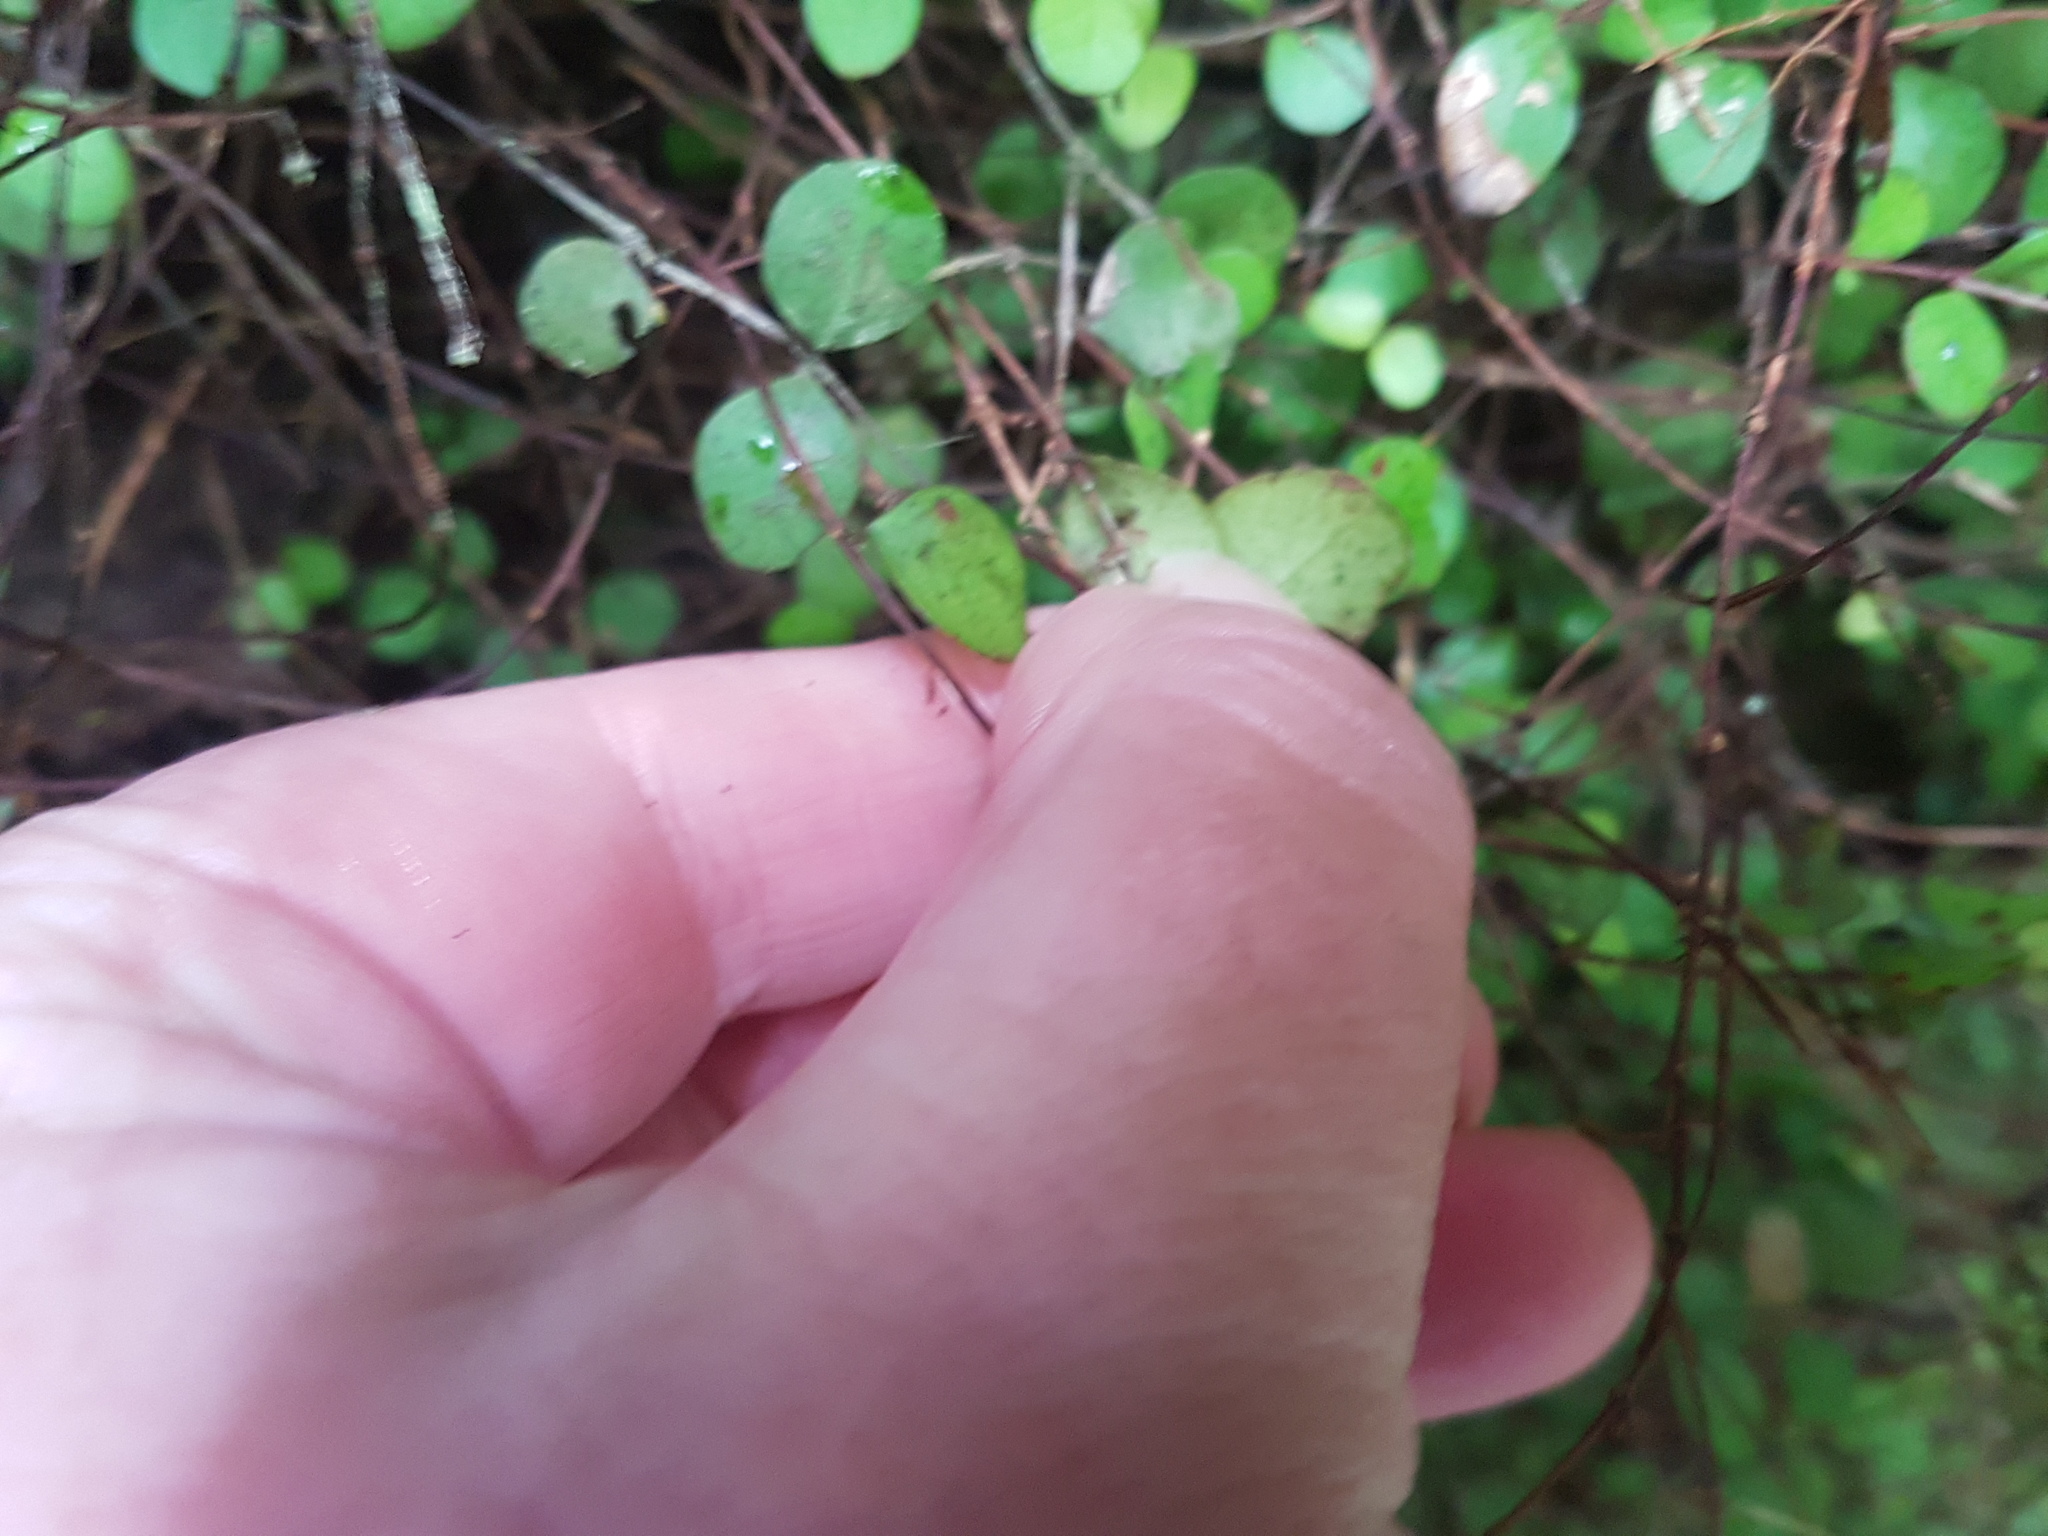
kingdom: Plantae
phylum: Tracheophyta
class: Magnoliopsida
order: Myrtales
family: Myrtaceae
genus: Metrosideros
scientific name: Metrosideros perforata
